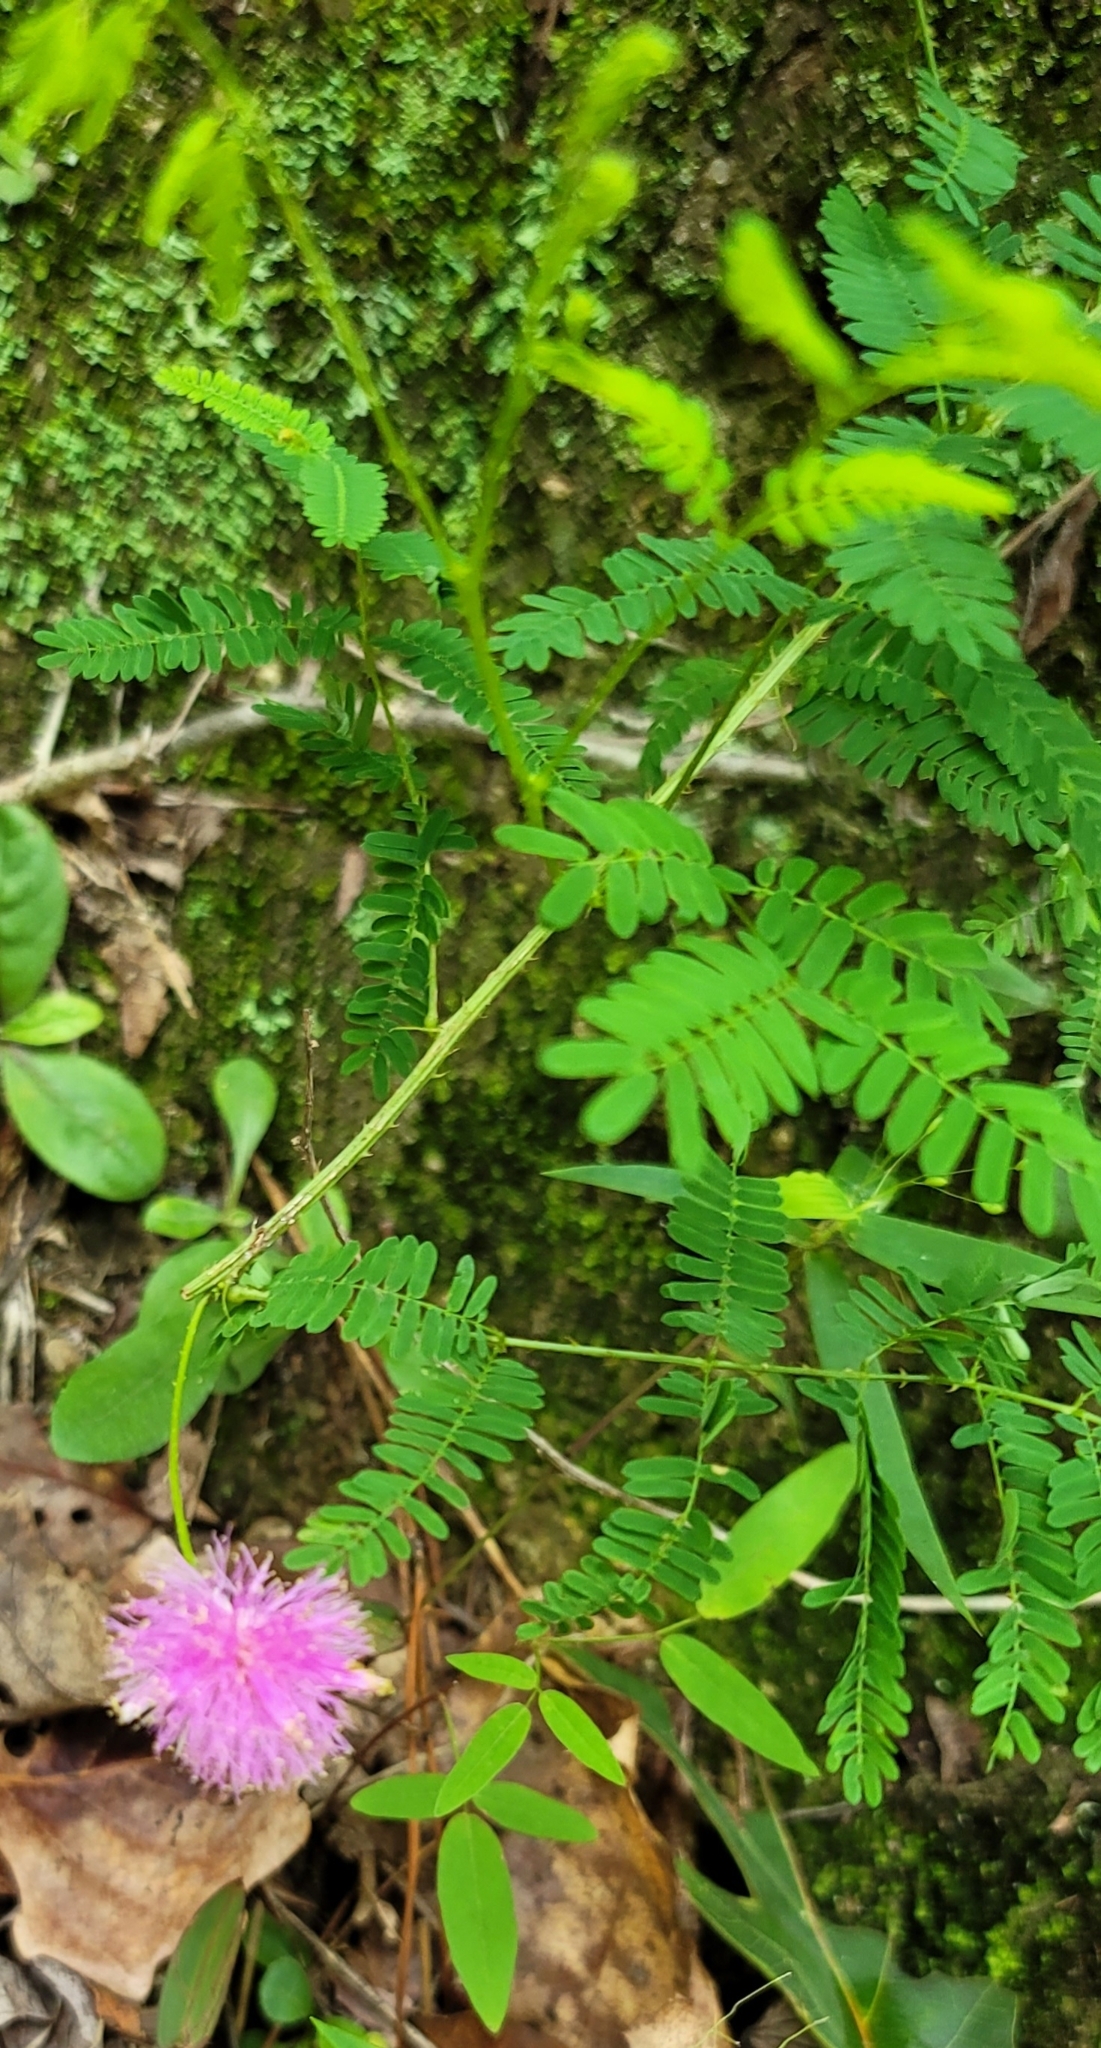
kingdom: Plantae
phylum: Tracheophyta
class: Magnoliopsida
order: Fabales
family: Fabaceae
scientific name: Fabaceae
